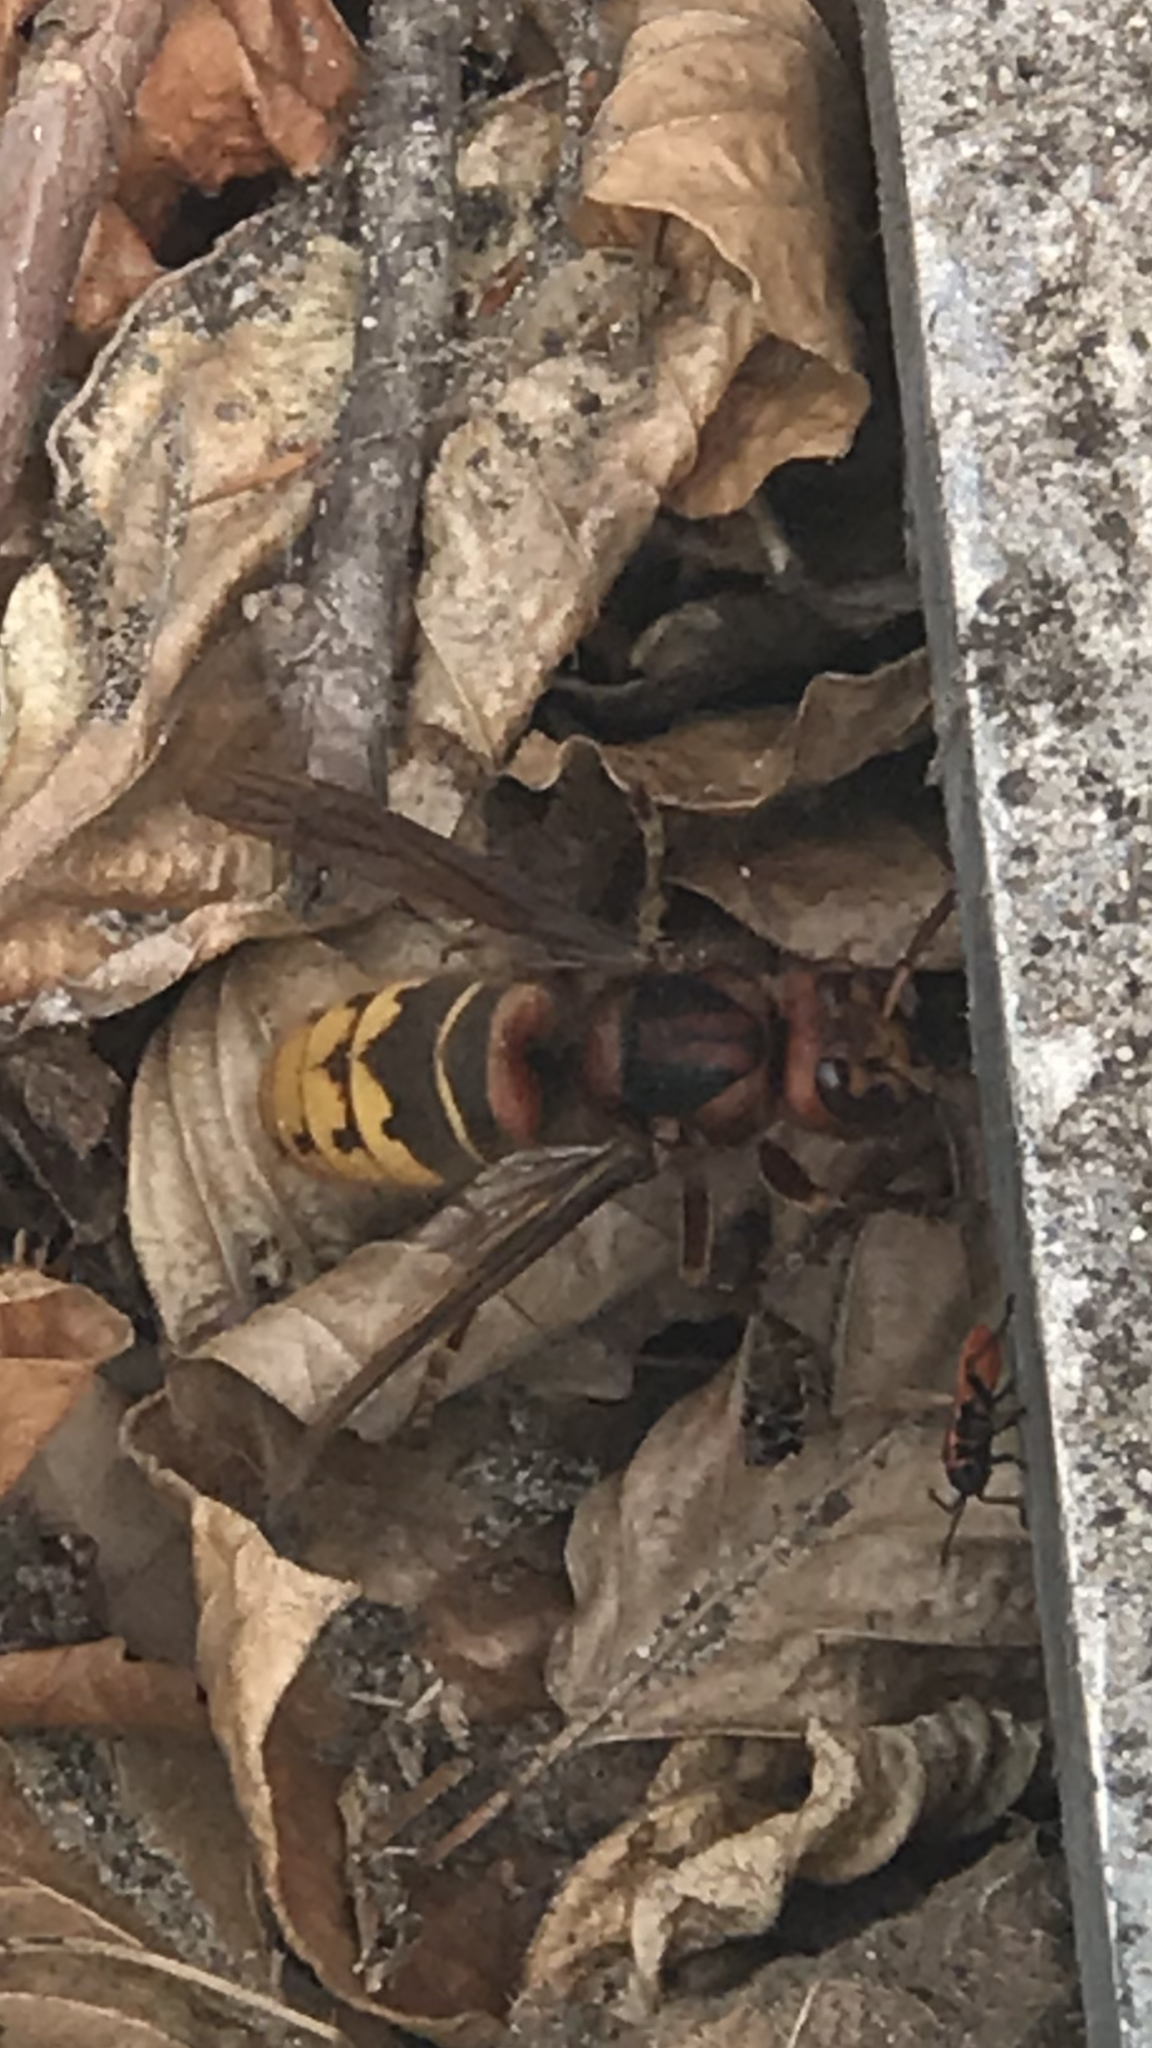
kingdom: Animalia
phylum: Arthropoda
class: Insecta
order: Hymenoptera
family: Vespidae
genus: Vespa
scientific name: Vespa crabro
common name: Hornet
